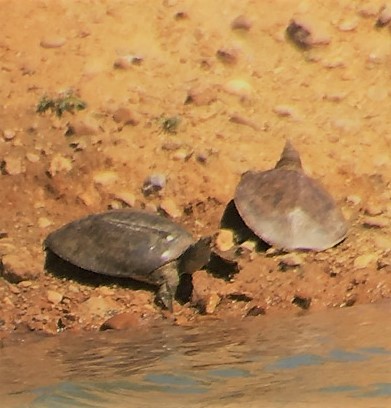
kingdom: Animalia
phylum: Chordata
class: Testudines
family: Trionychidae
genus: Apalone
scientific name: Apalone spinifera
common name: Spiny softshell turtle
